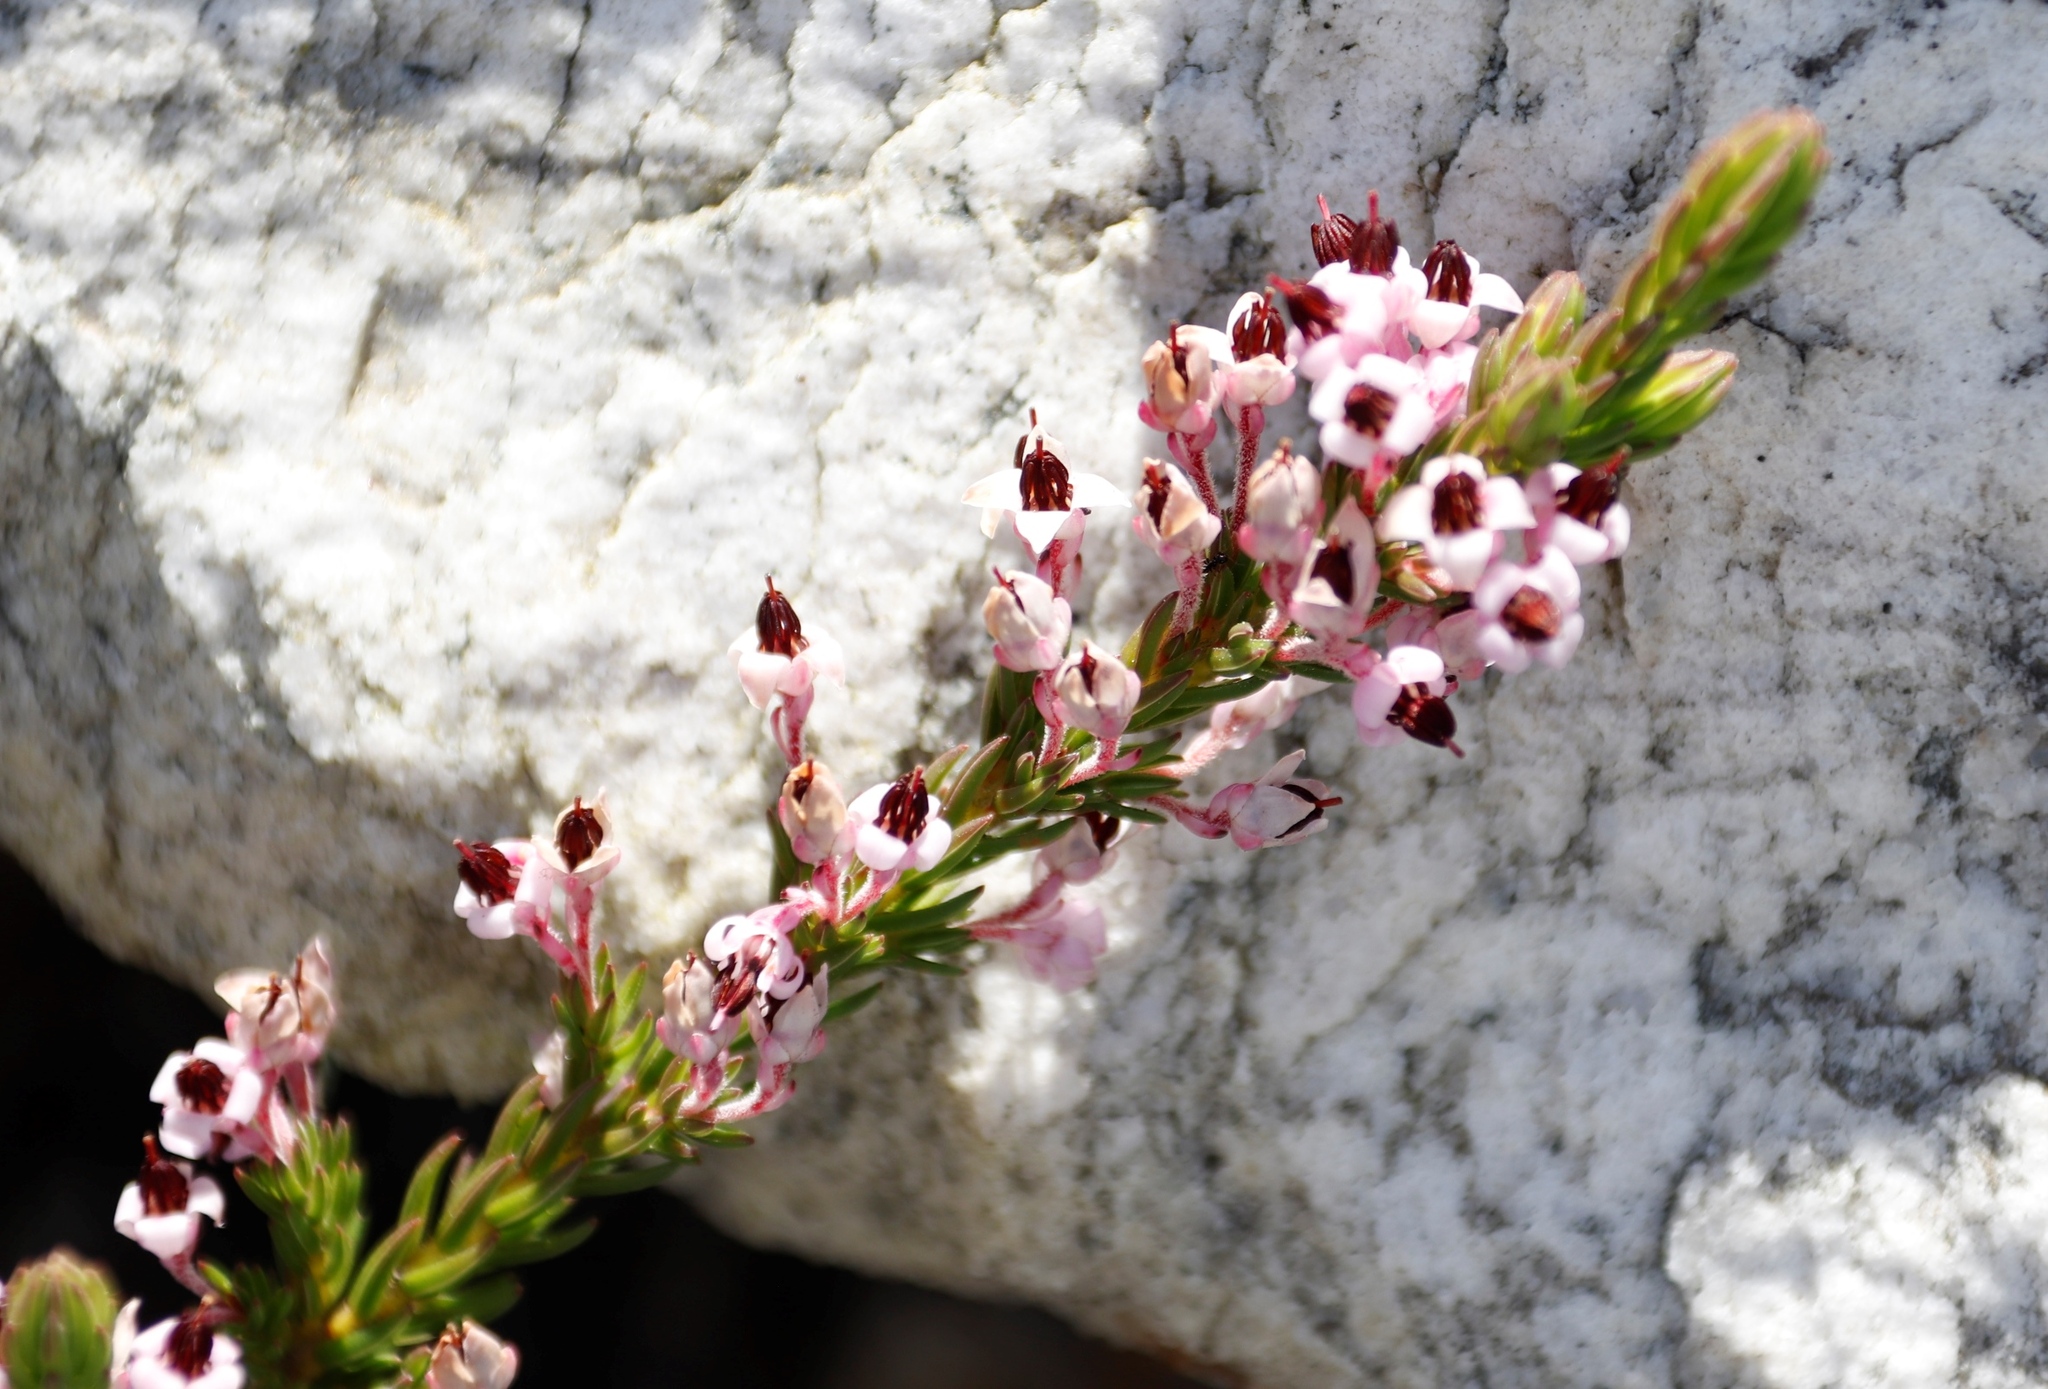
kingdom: Plantae
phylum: Tracheophyta
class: Magnoliopsida
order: Ericales
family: Ericaceae
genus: Erica
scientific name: Erica calycina
